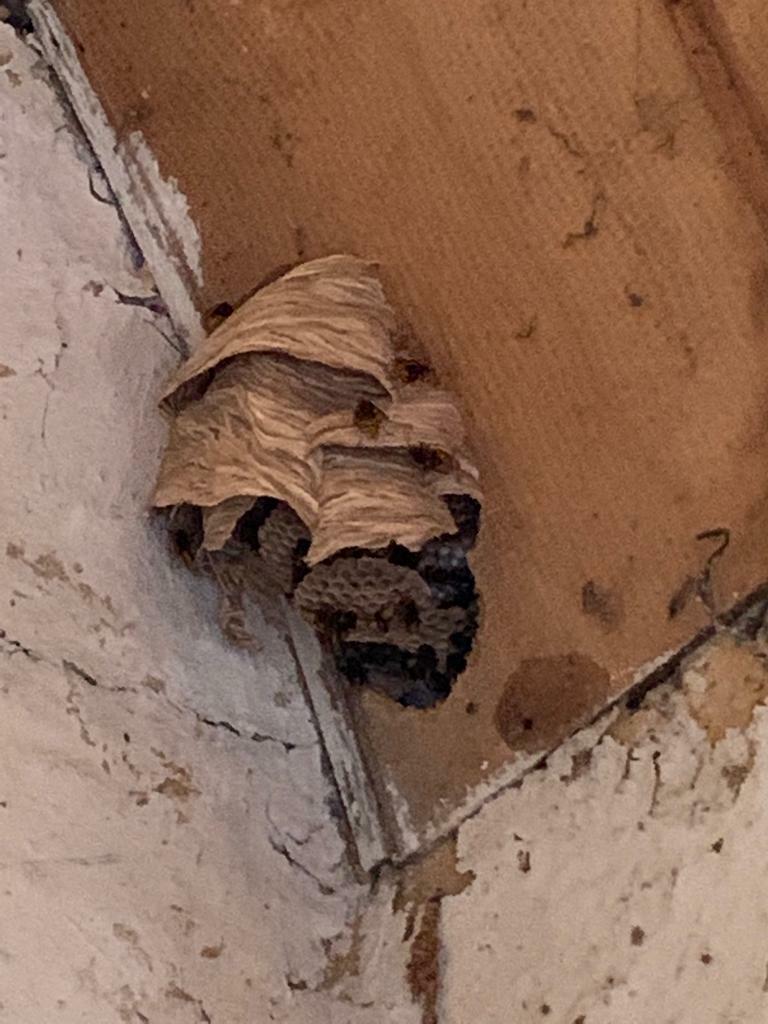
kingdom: Animalia
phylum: Arthropoda
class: Insecta
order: Hymenoptera
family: Vespidae
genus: Vespa
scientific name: Vespa crabro
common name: Hornet
